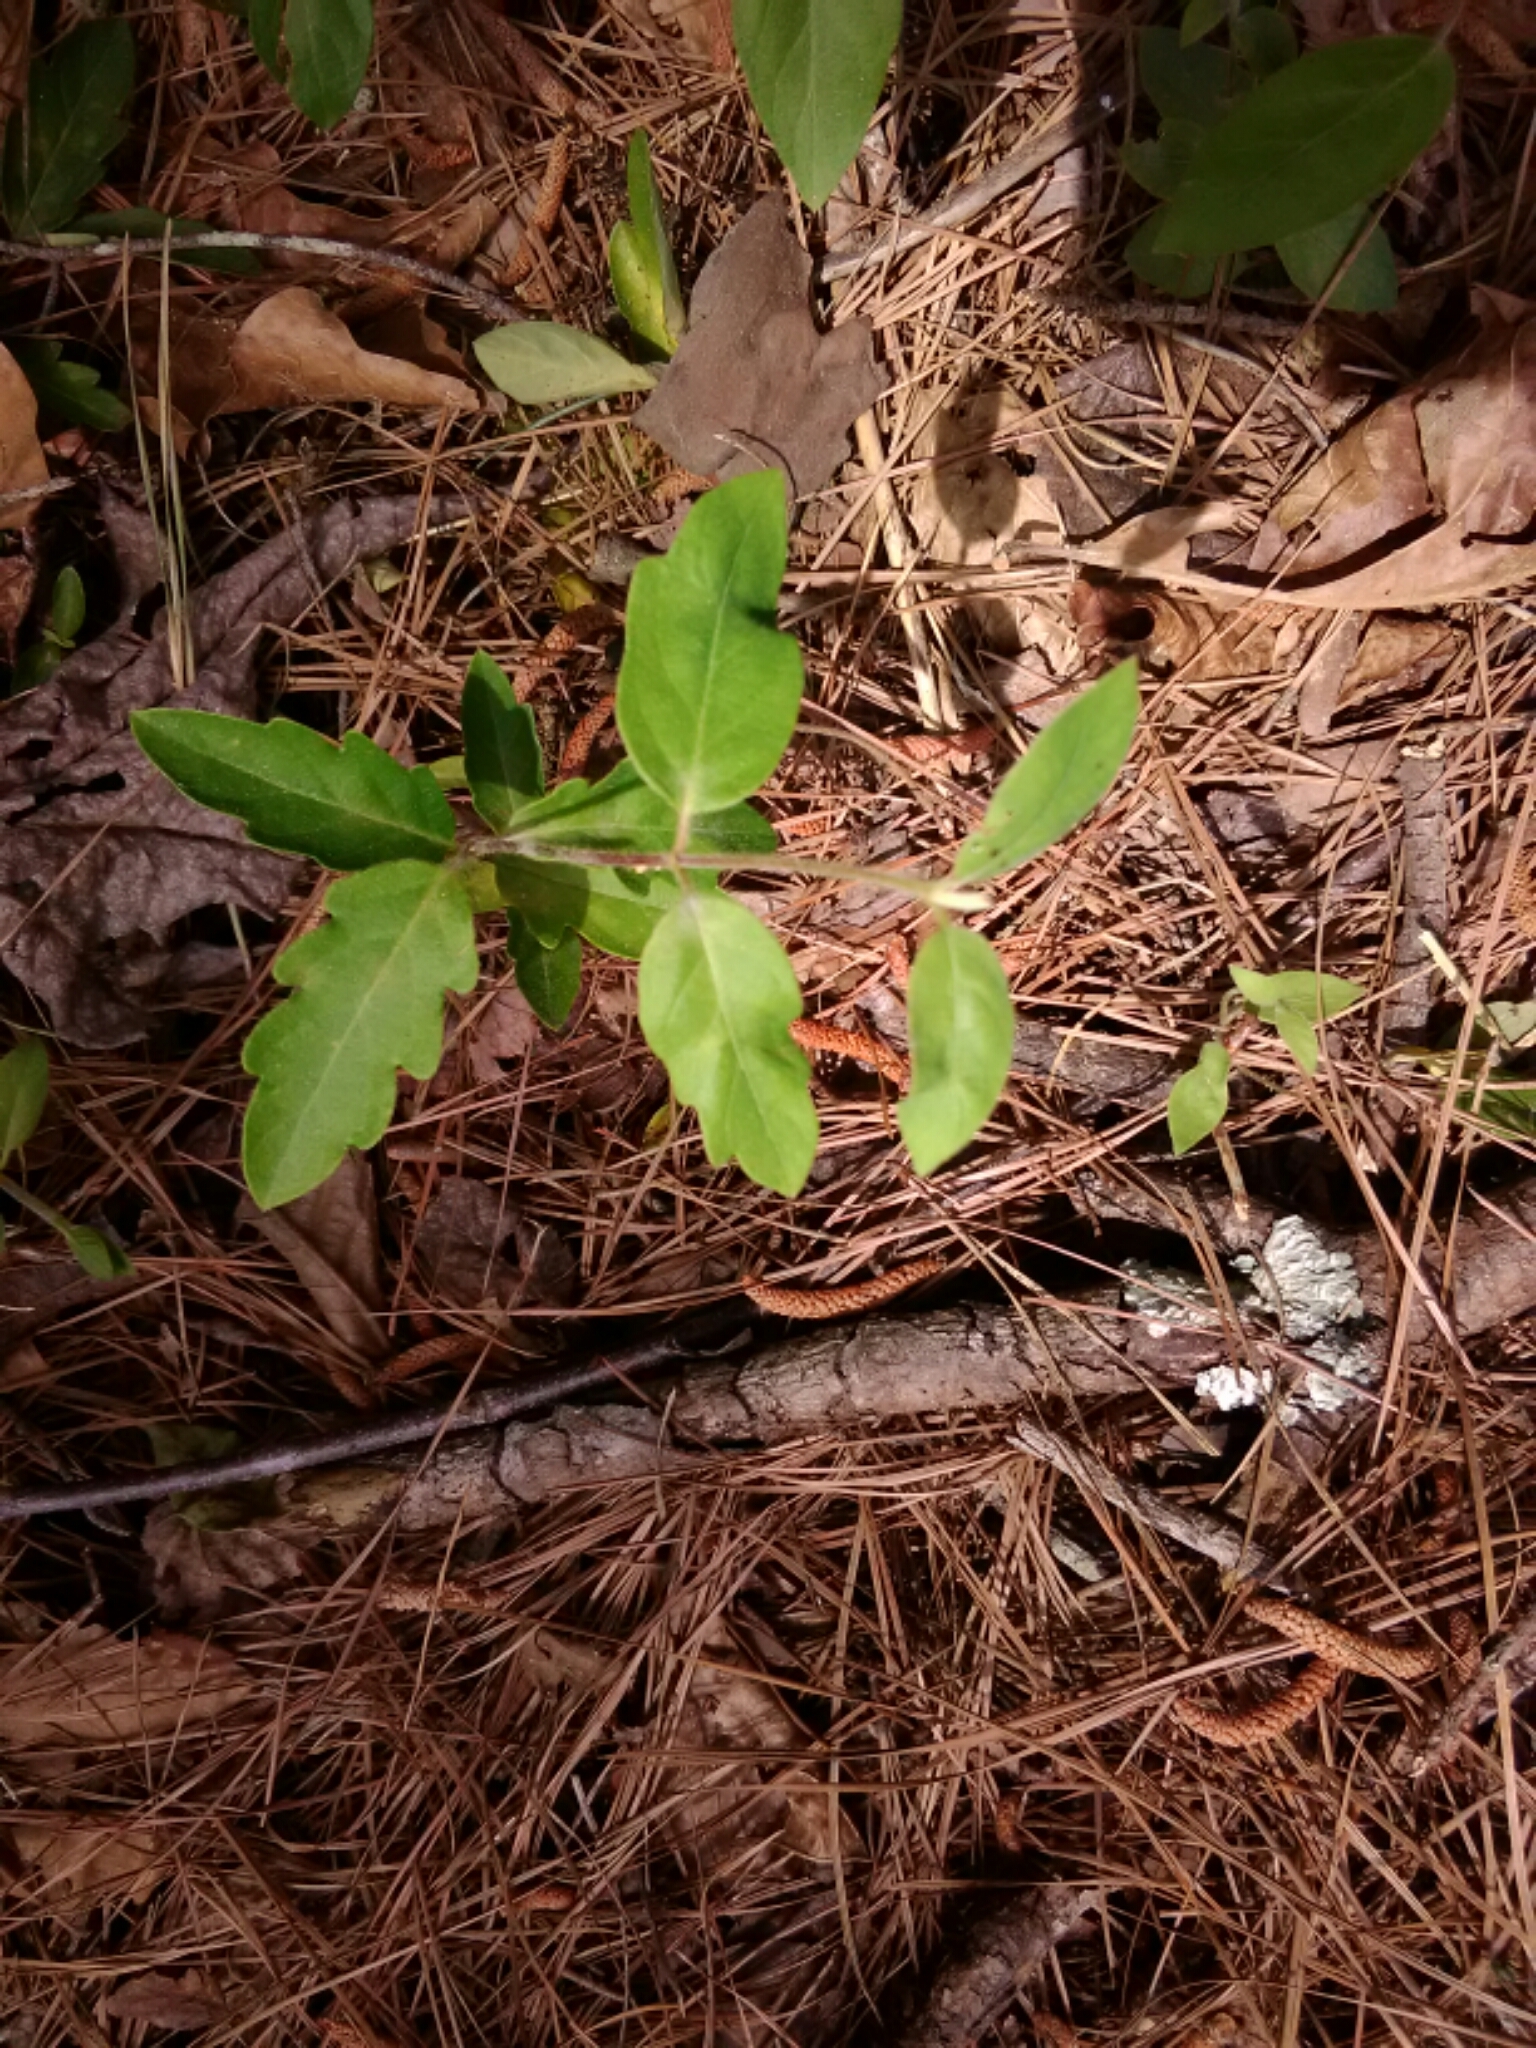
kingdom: Plantae
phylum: Tracheophyta
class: Magnoliopsida
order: Dipsacales
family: Caprifoliaceae
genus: Lonicera
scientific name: Lonicera japonica
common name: Japanese honeysuckle
